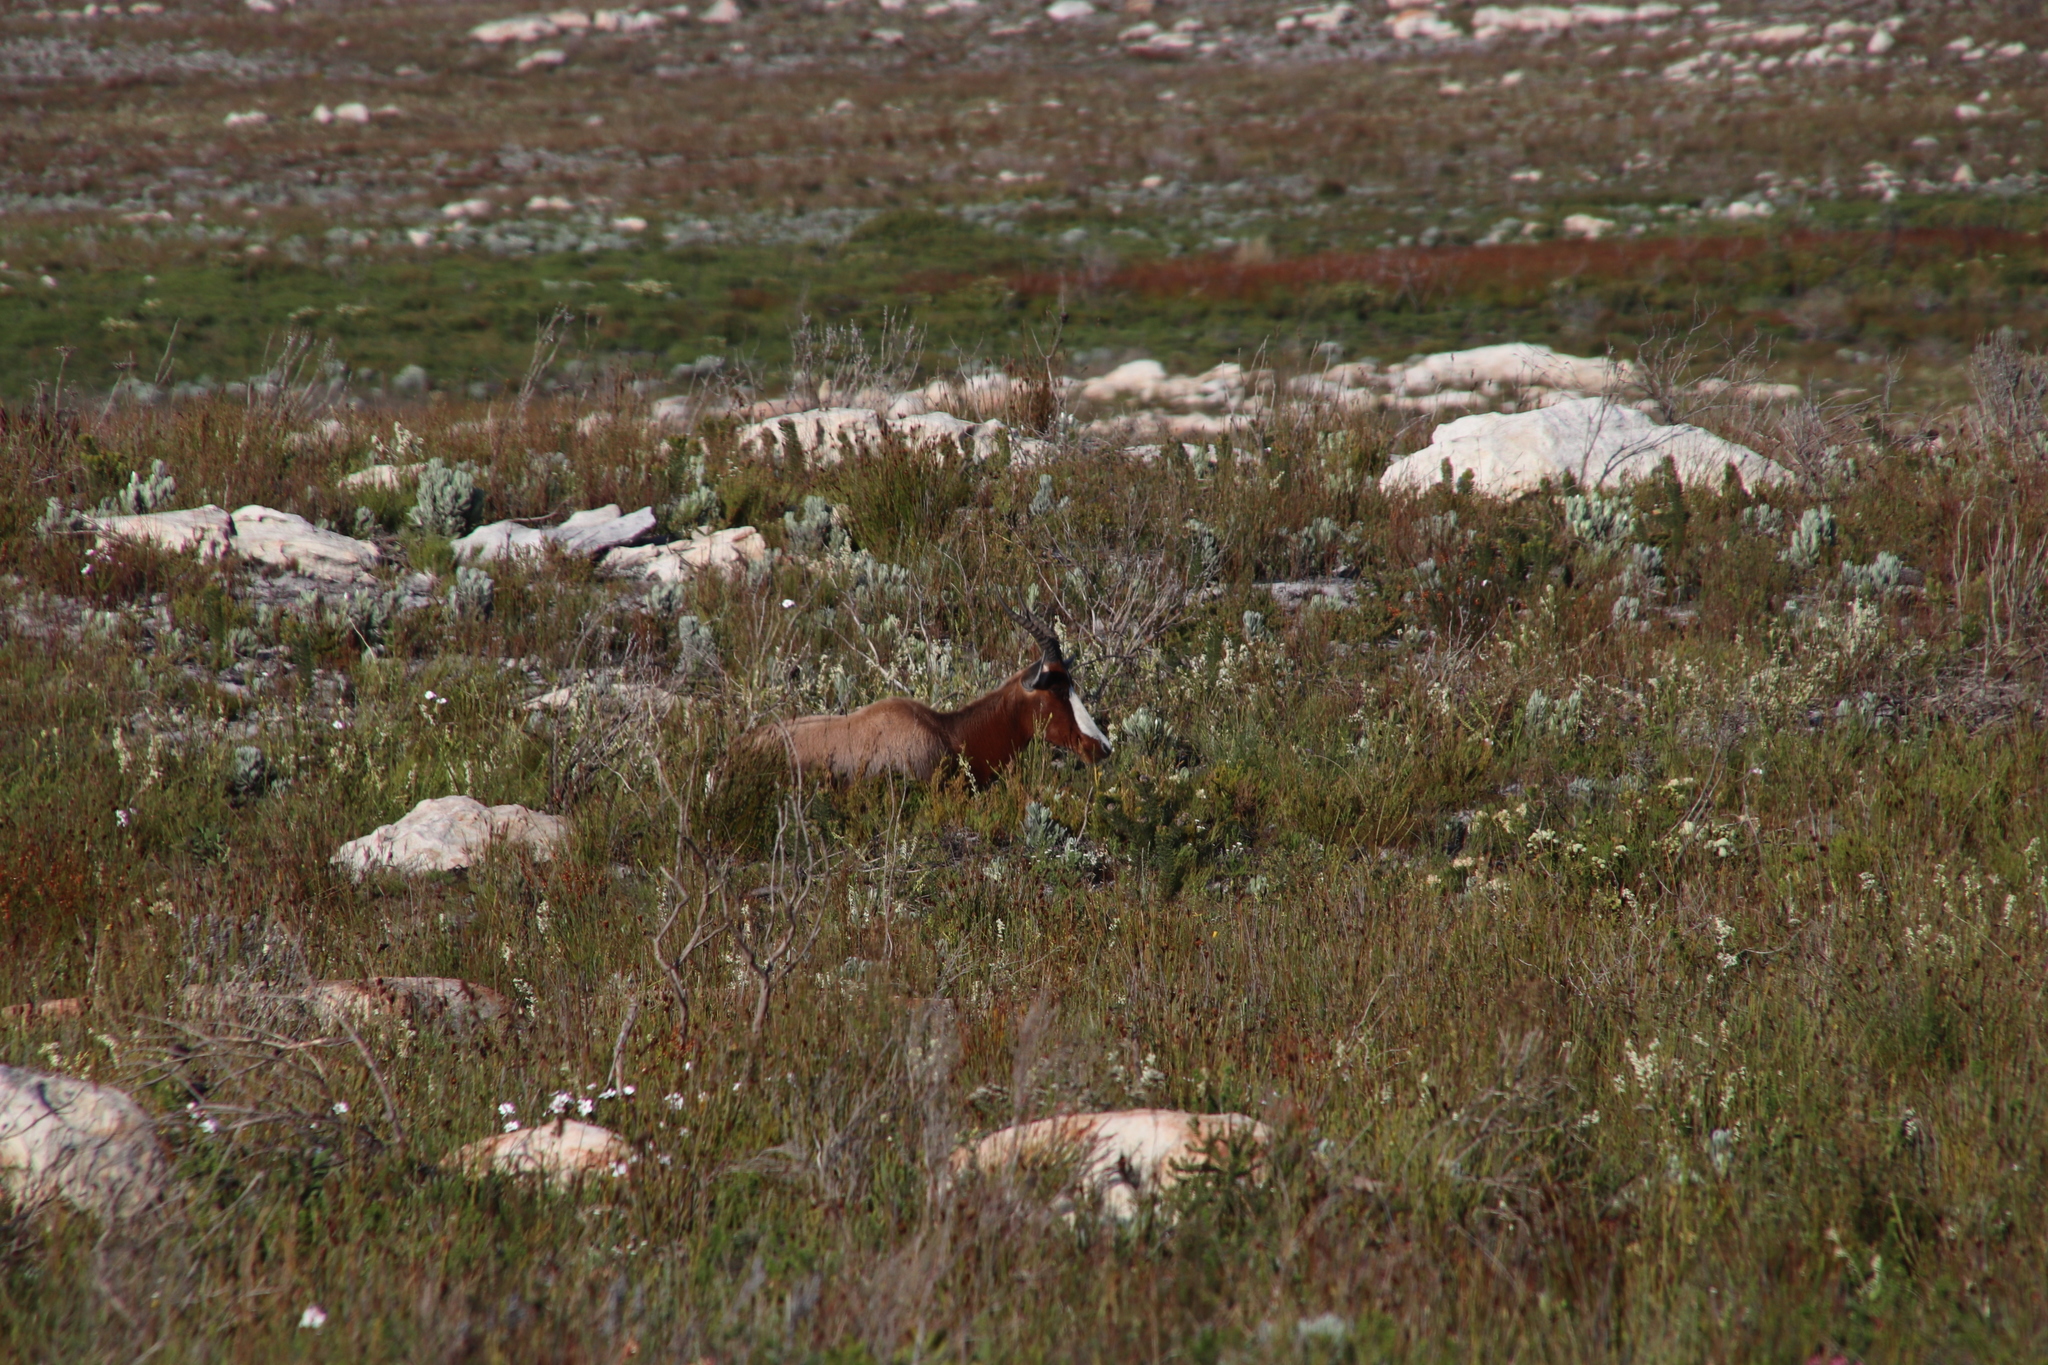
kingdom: Animalia
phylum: Chordata
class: Mammalia
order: Artiodactyla
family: Bovidae
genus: Damaliscus
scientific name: Damaliscus pygargus
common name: Bontebok
